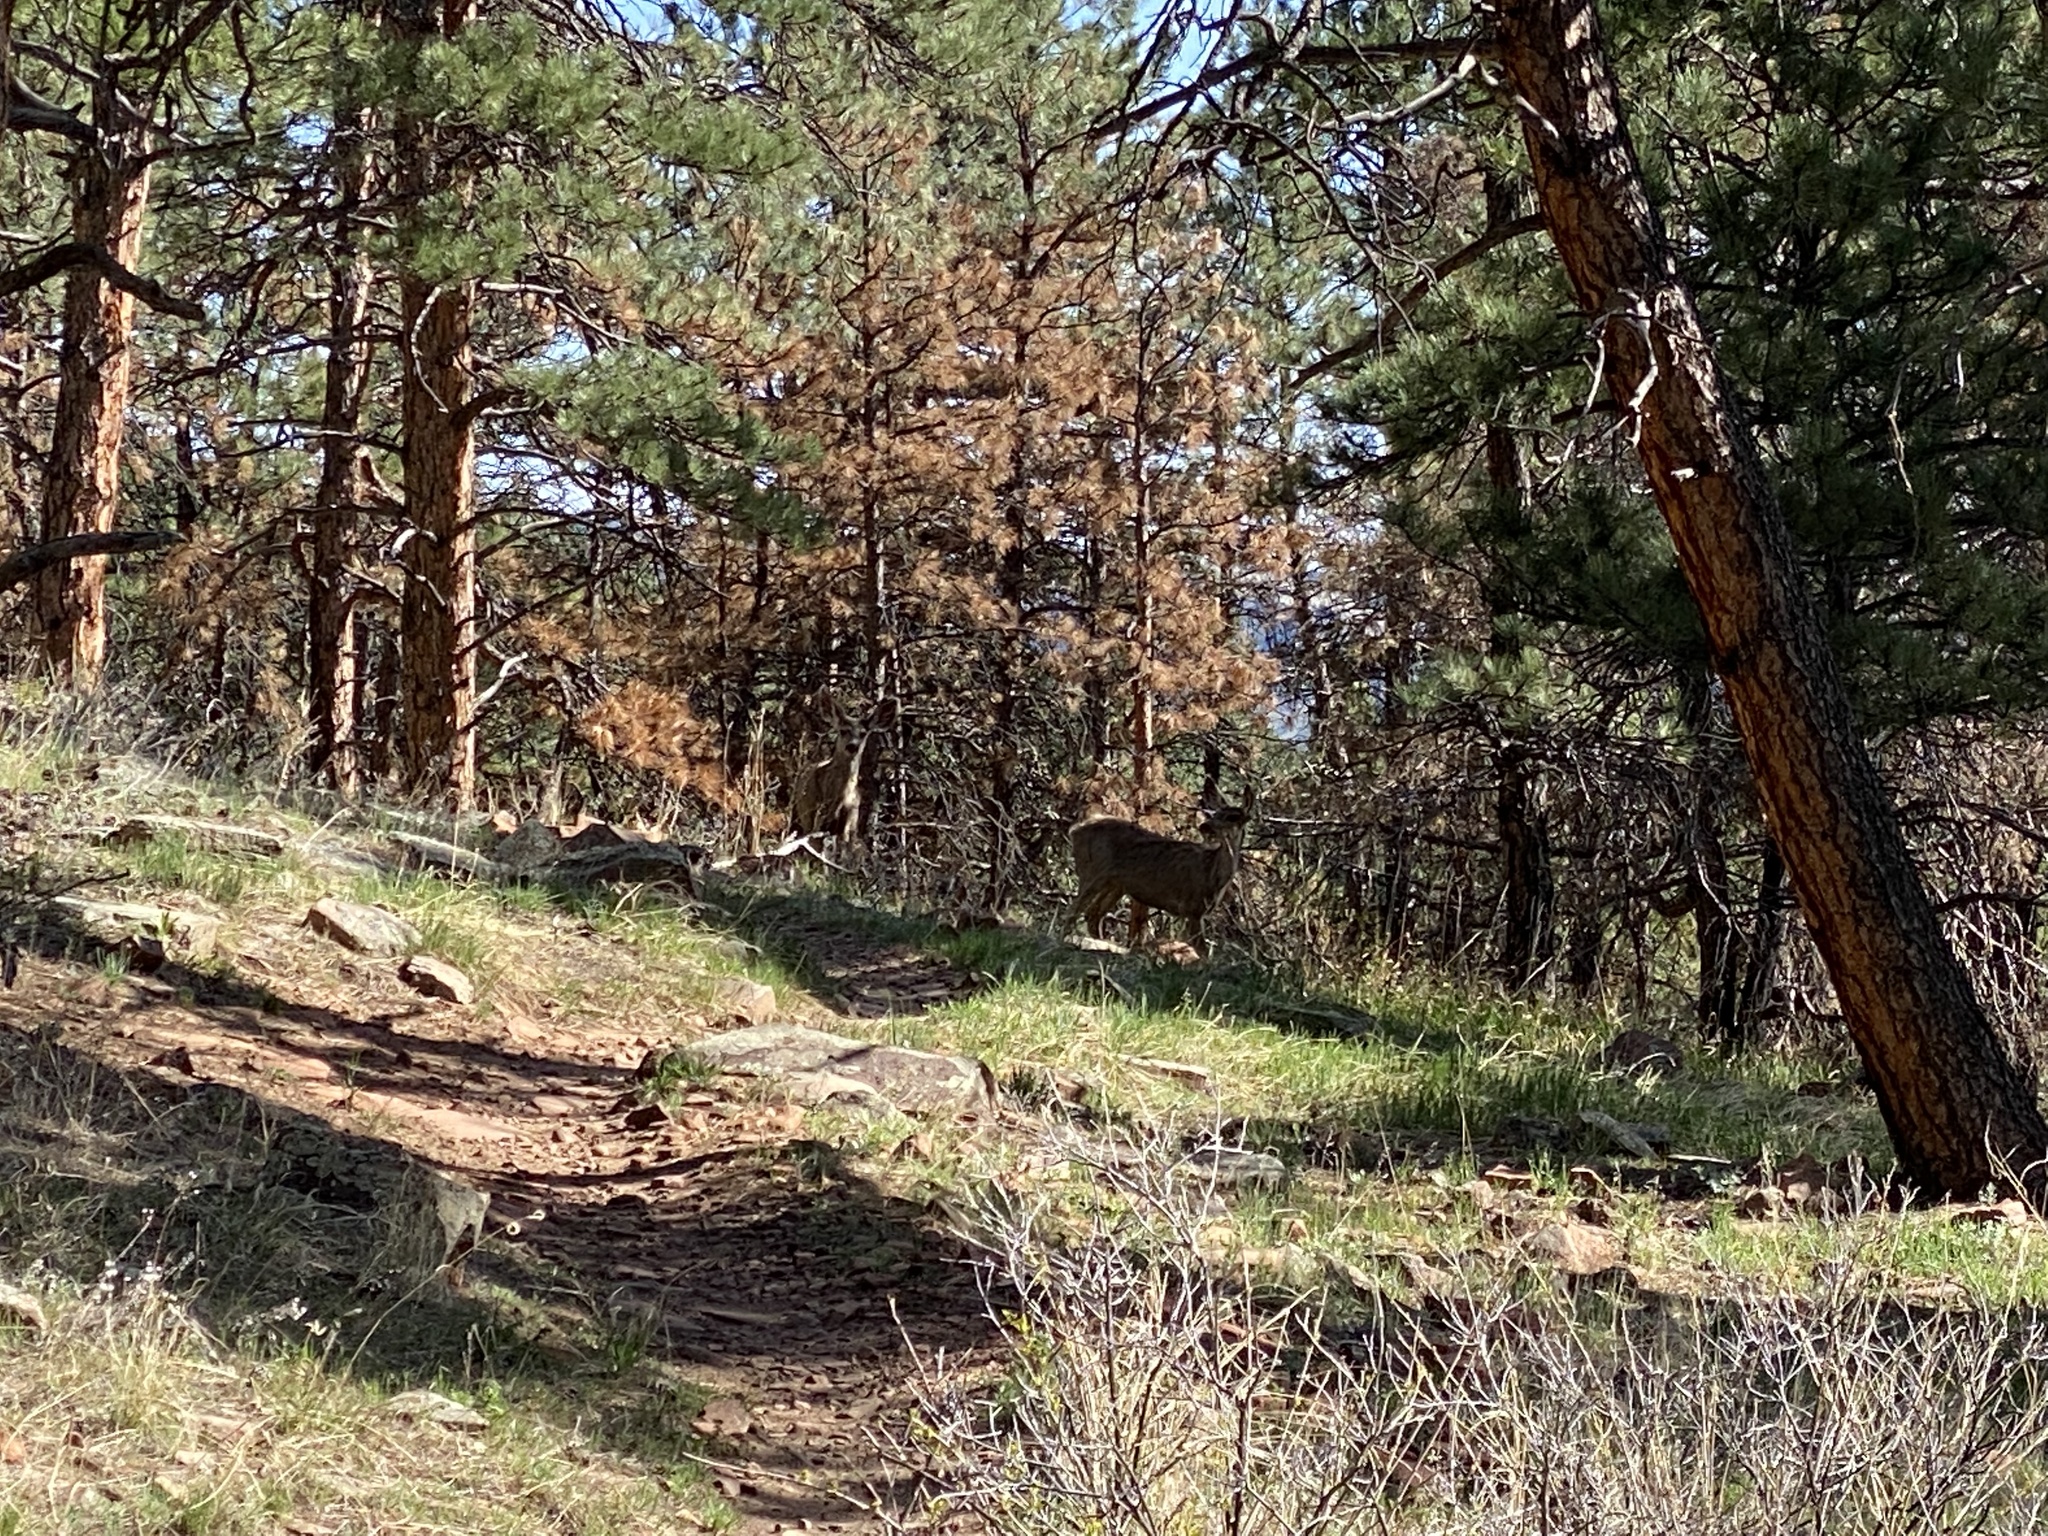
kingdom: Animalia
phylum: Chordata
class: Mammalia
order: Artiodactyla
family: Cervidae
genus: Odocoileus
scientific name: Odocoileus hemionus
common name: Mule deer
